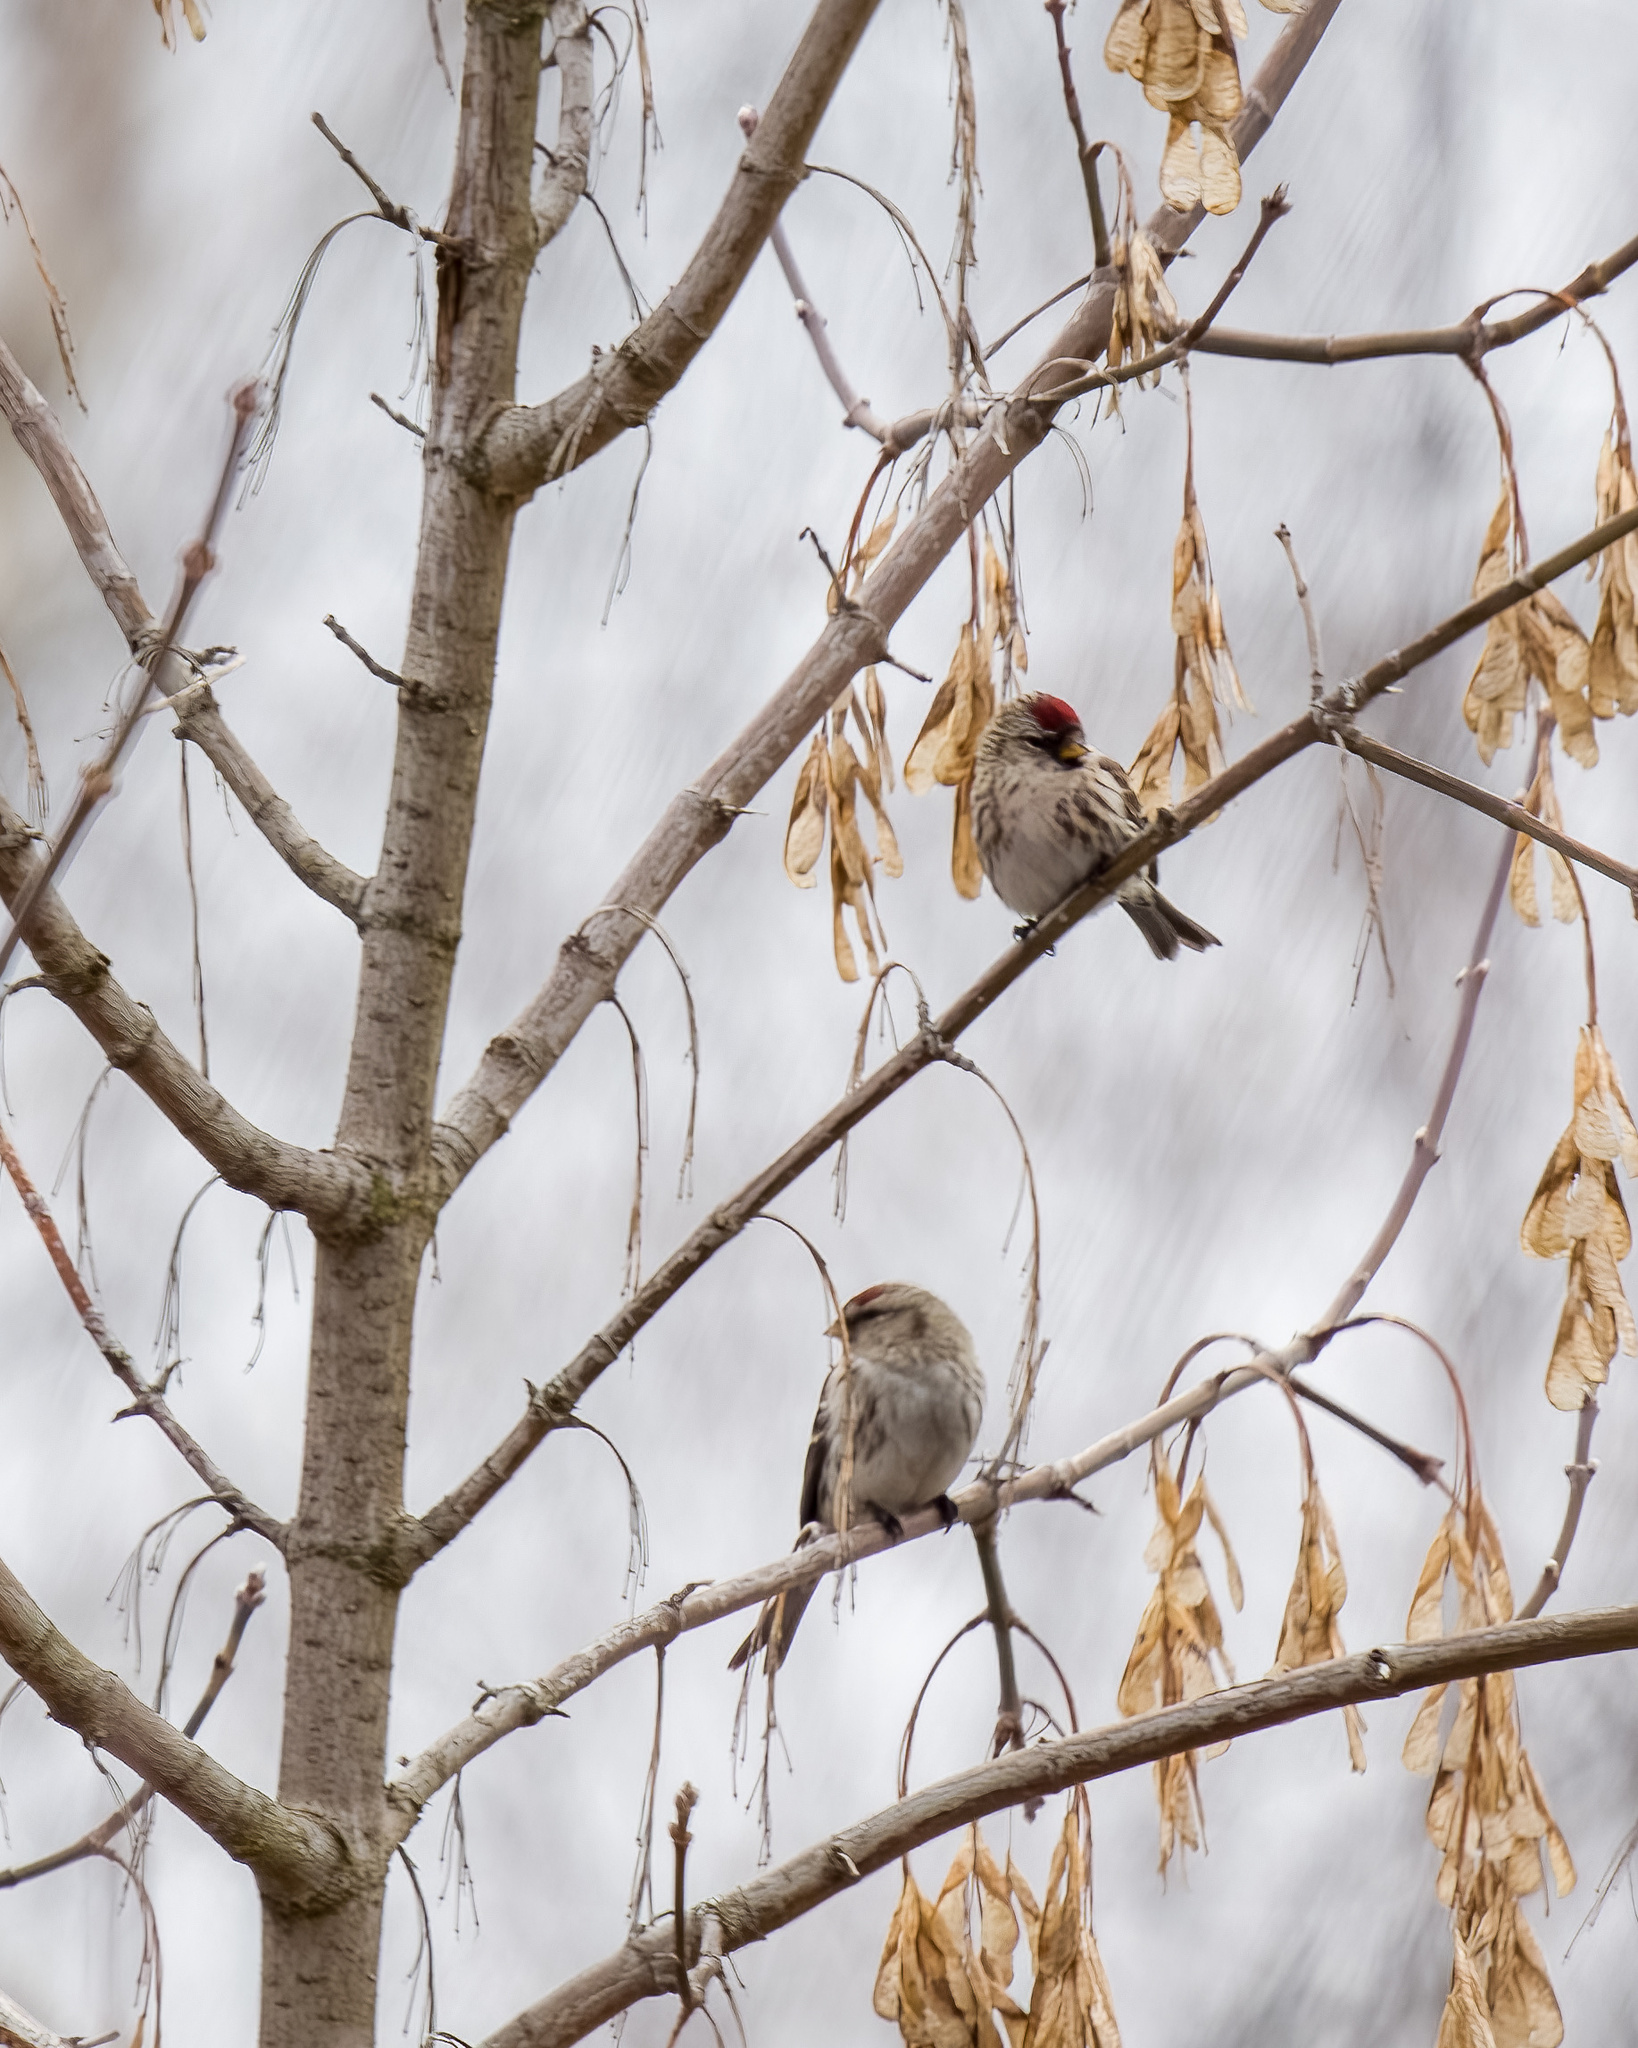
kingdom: Animalia
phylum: Chordata
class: Aves
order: Passeriformes
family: Fringillidae
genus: Acanthis
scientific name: Acanthis flammea
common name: Common redpoll
